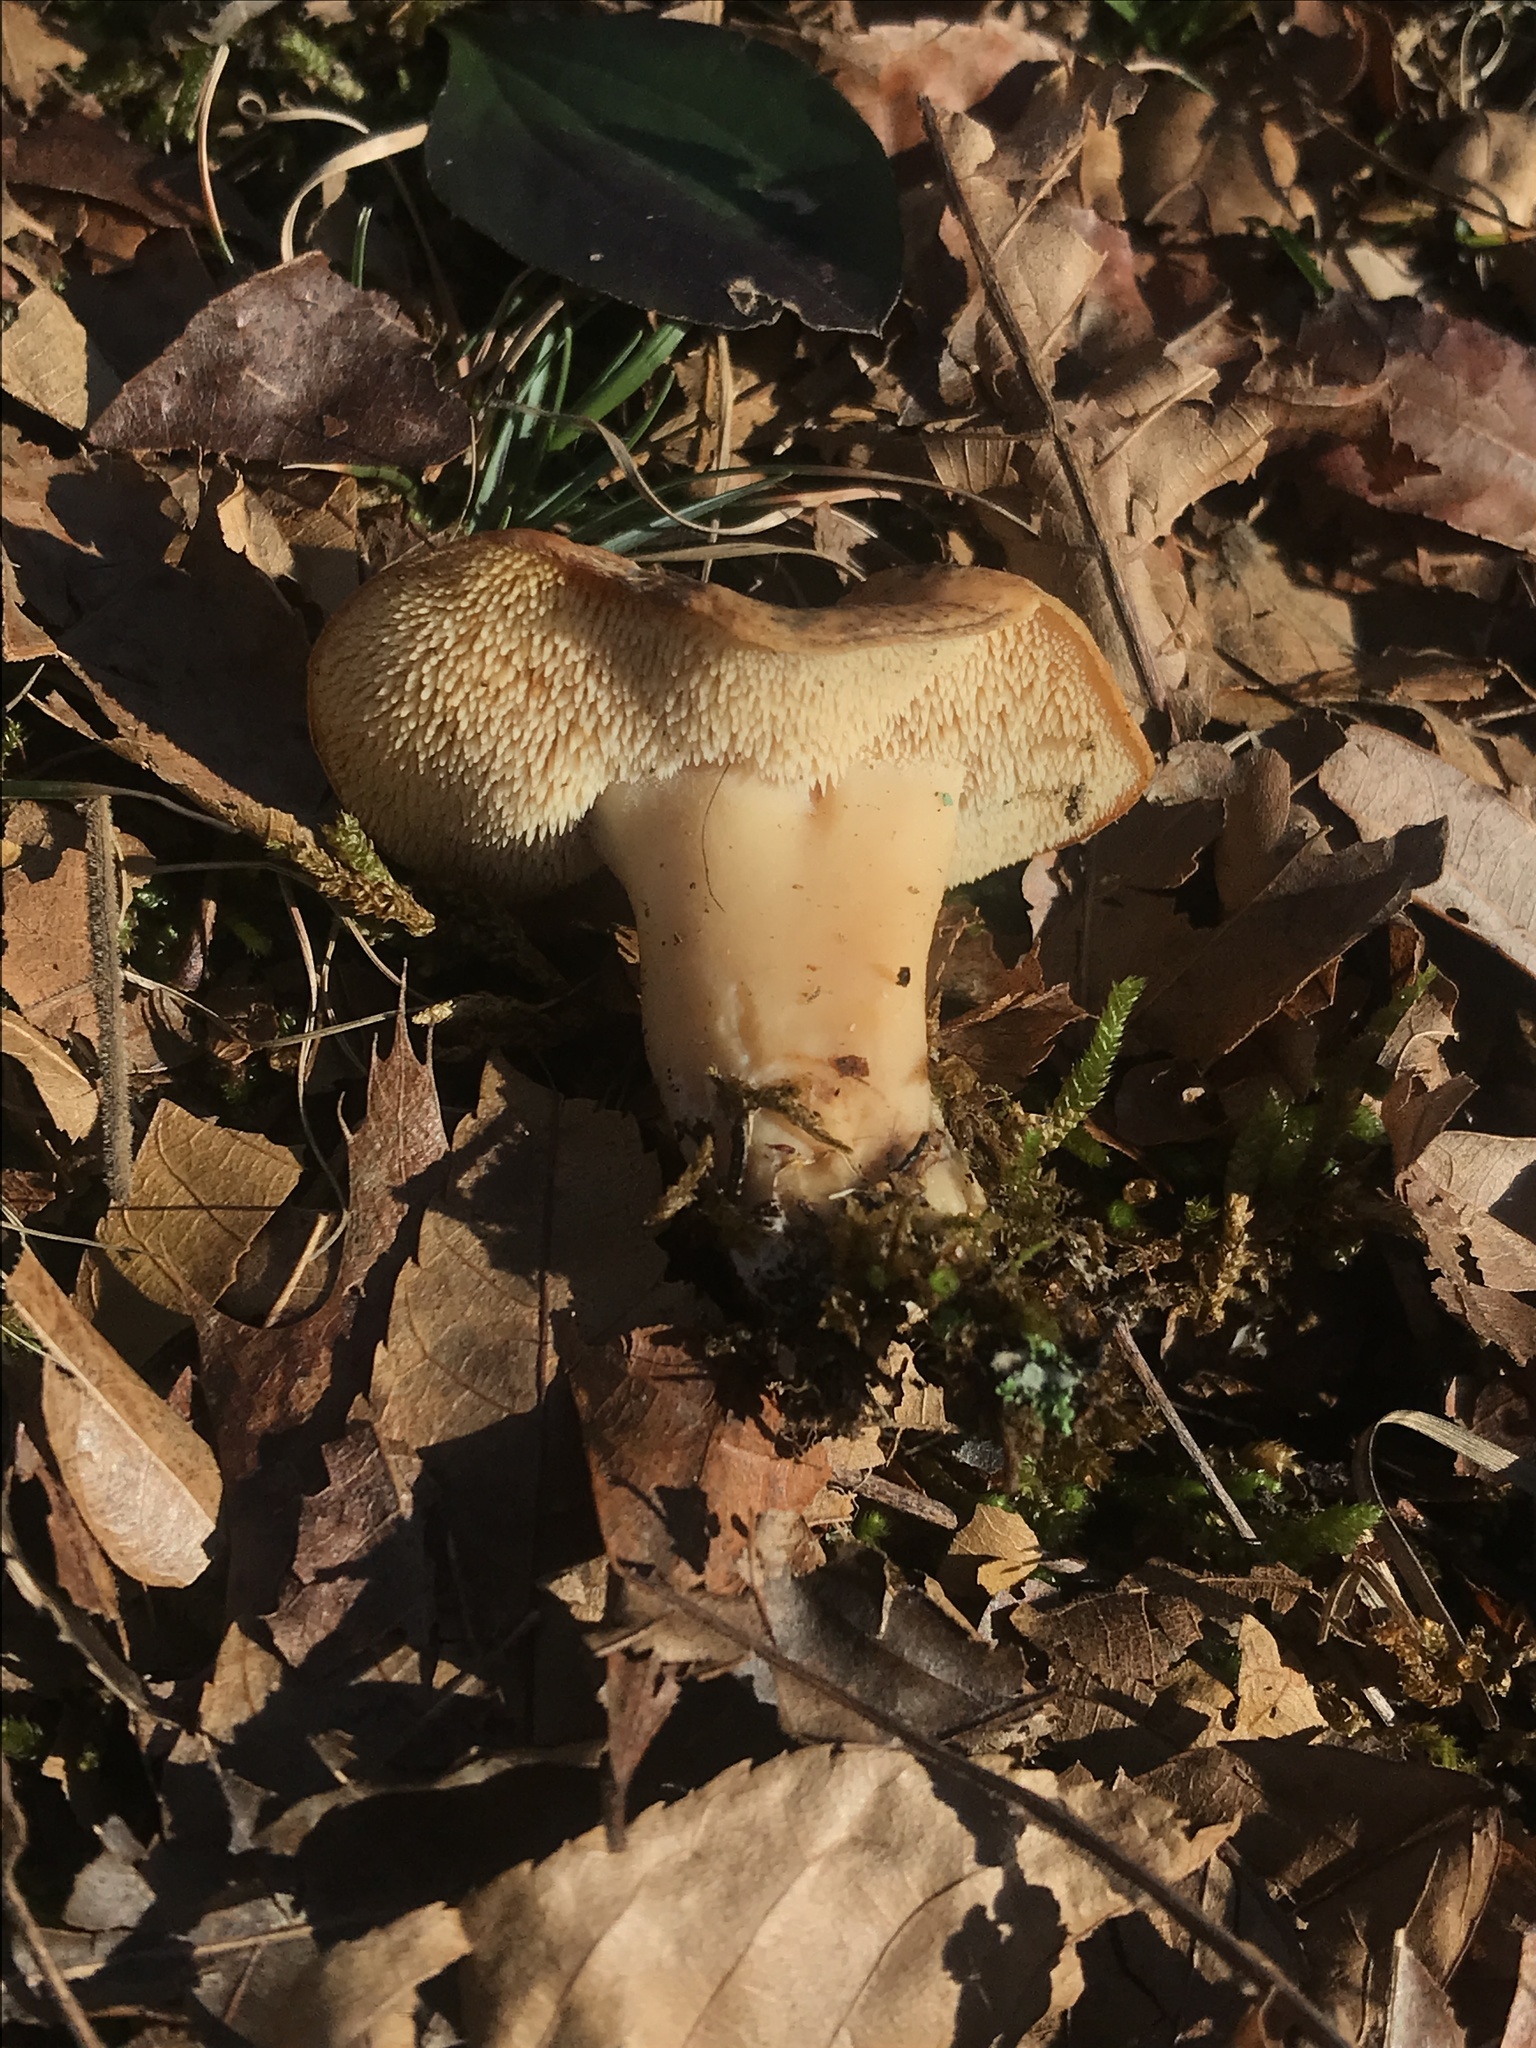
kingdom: Fungi
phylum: Basidiomycota
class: Agaricomycetes
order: Cantharellales
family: Hydnaceae
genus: Hydnum
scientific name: Hydnum aerostatisporum
